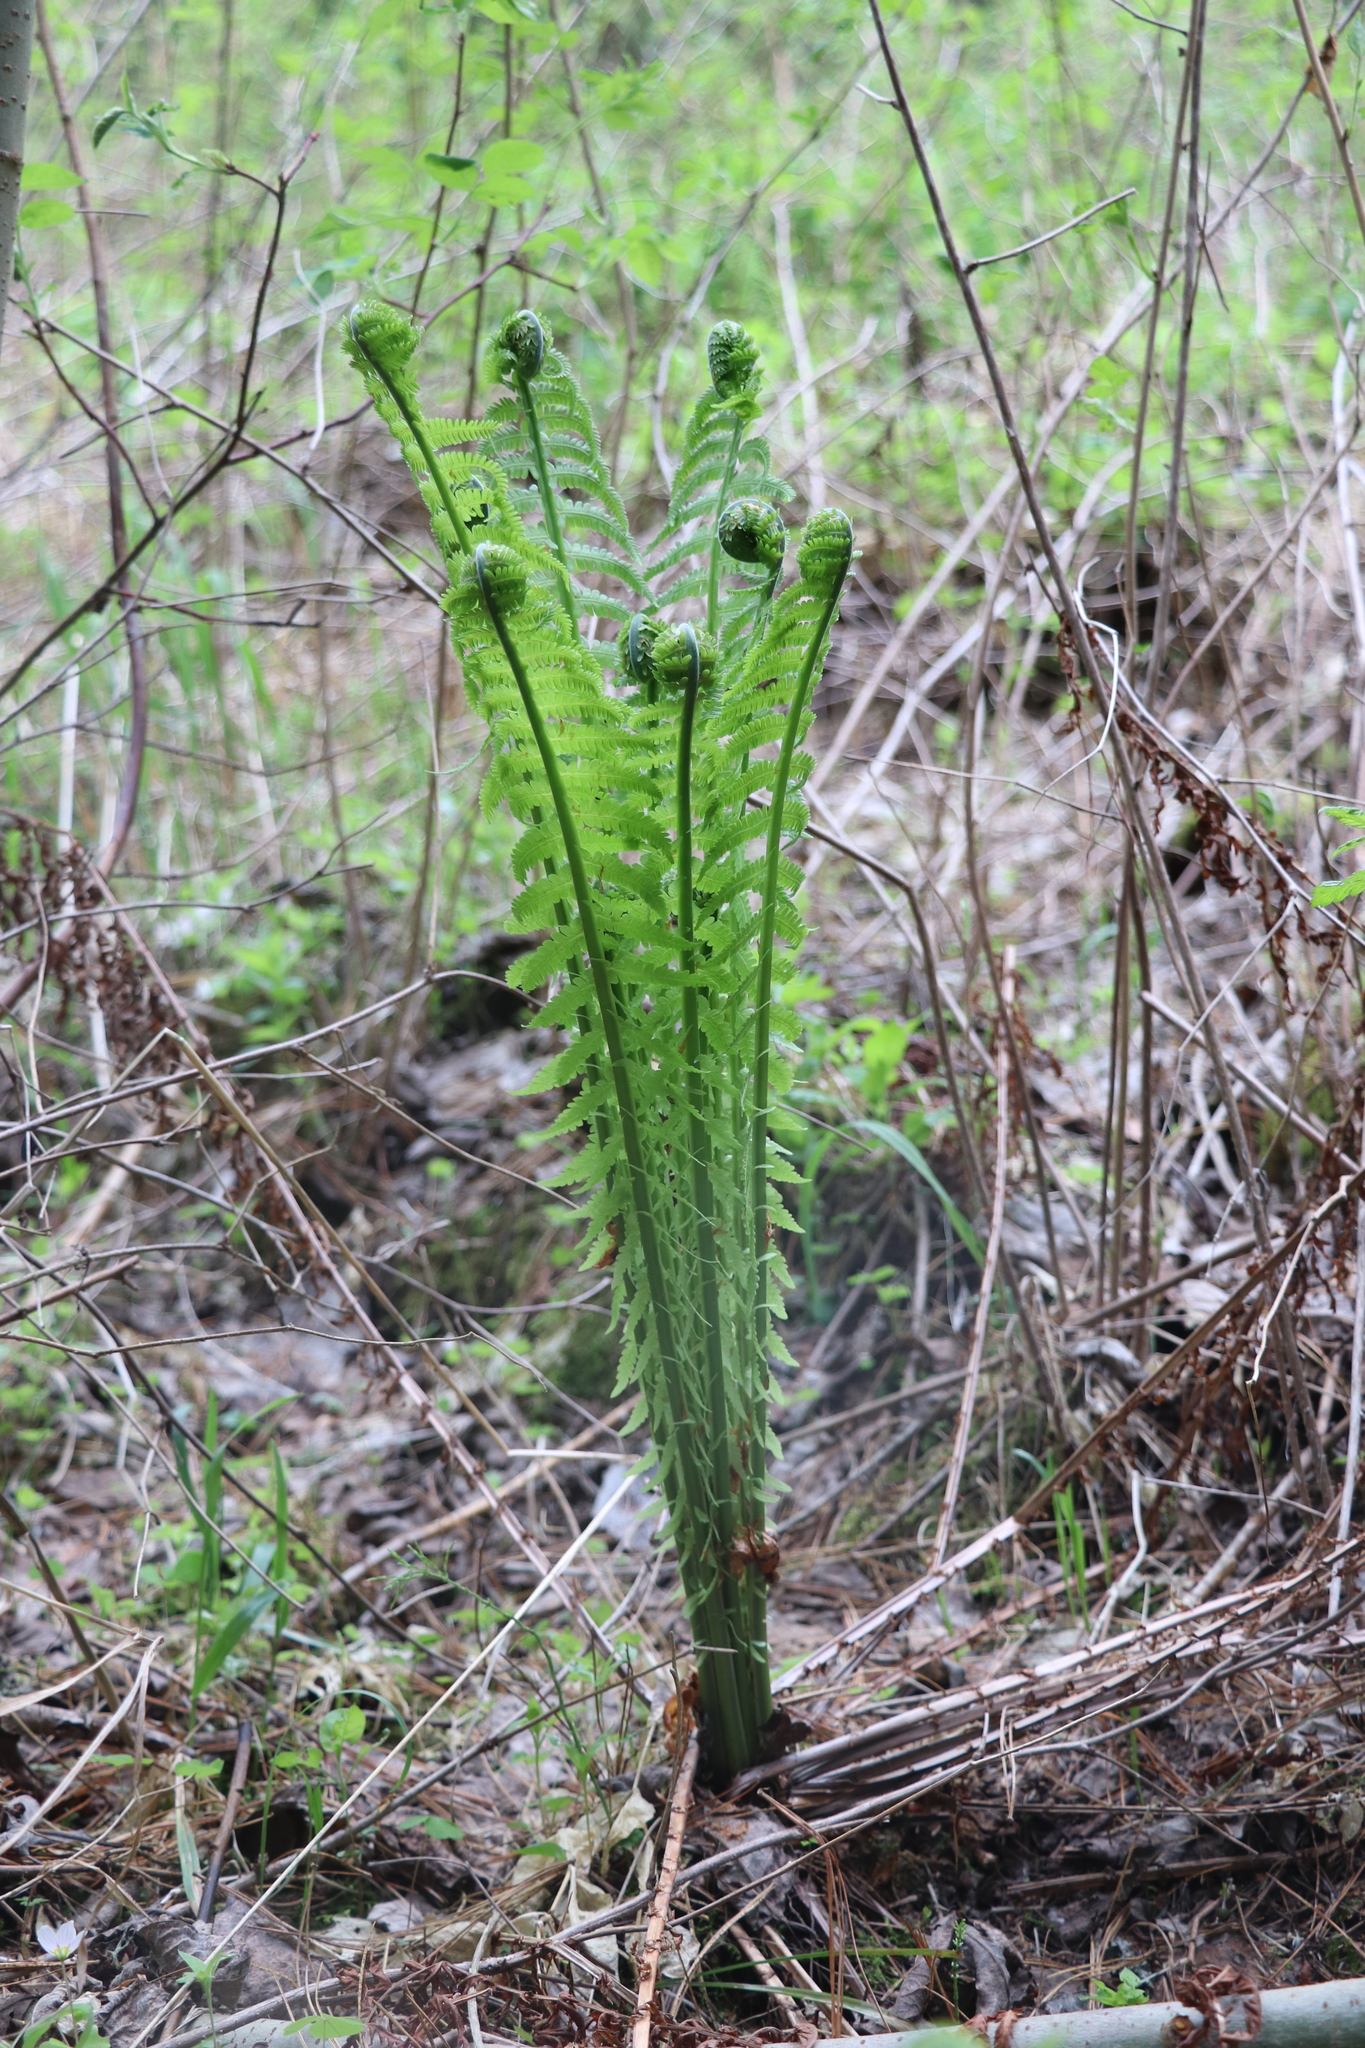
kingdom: Plantae
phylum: Tracheophyta
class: Polypodiopsida
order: Polypodiales
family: Onocleaceae
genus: Matteuccia
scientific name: Matteuccia struthiopteris
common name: Ostrich fern
